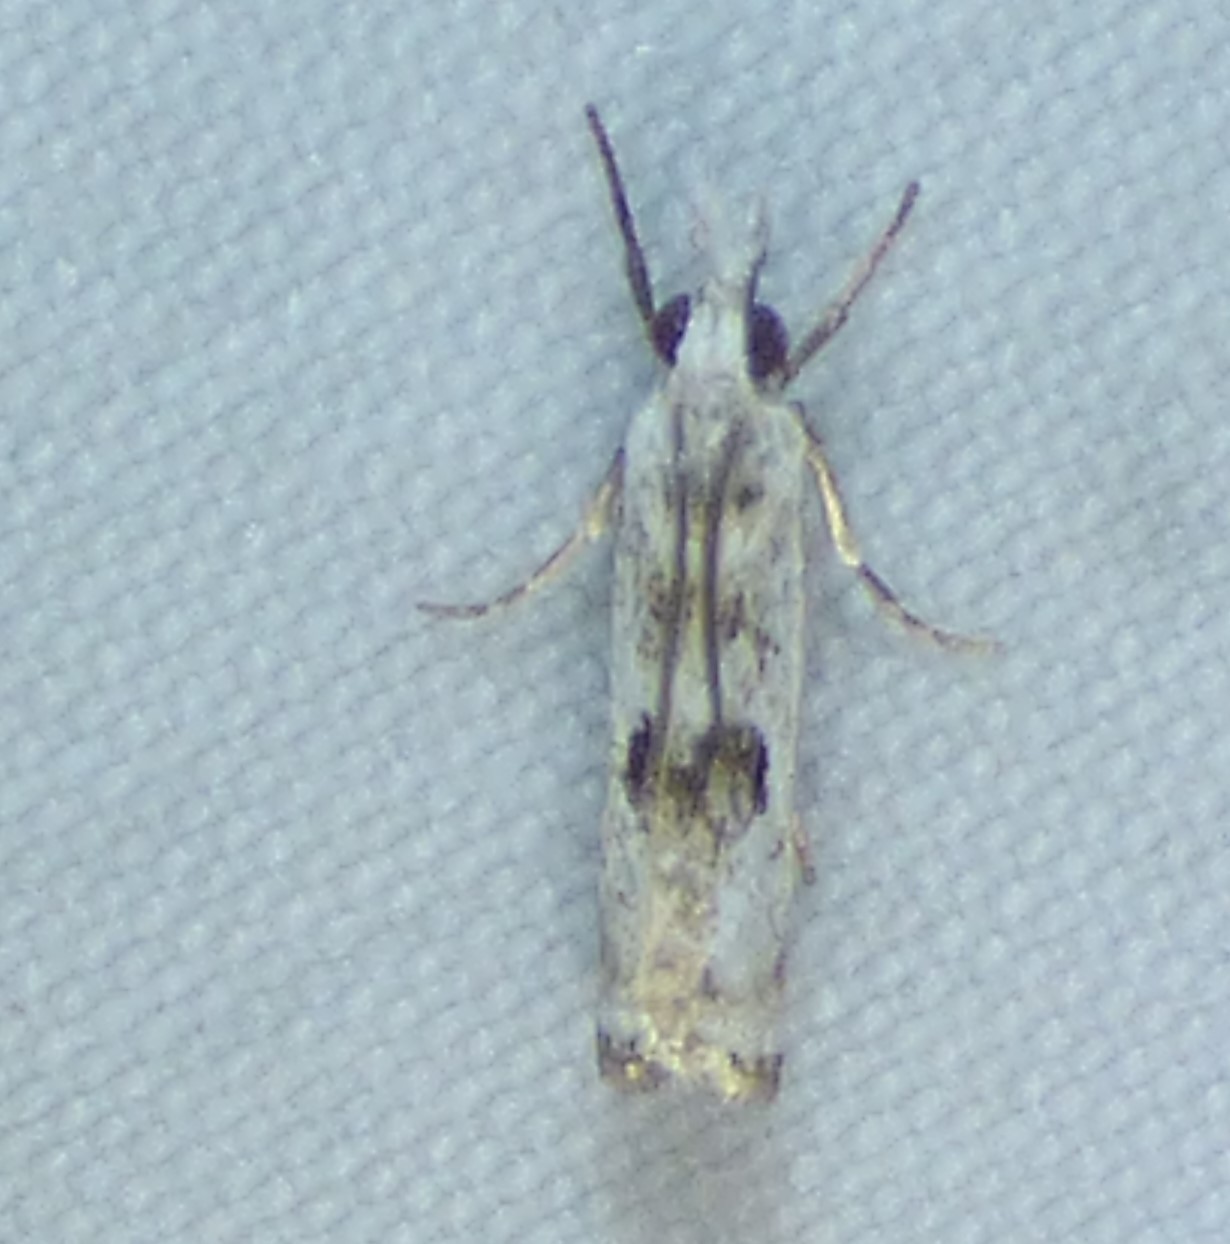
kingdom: Animalia
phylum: Arthropoda
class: Insecta
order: Lepidoptera
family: Crambidae
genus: Microcrambus
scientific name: Microcrambus immunellus
